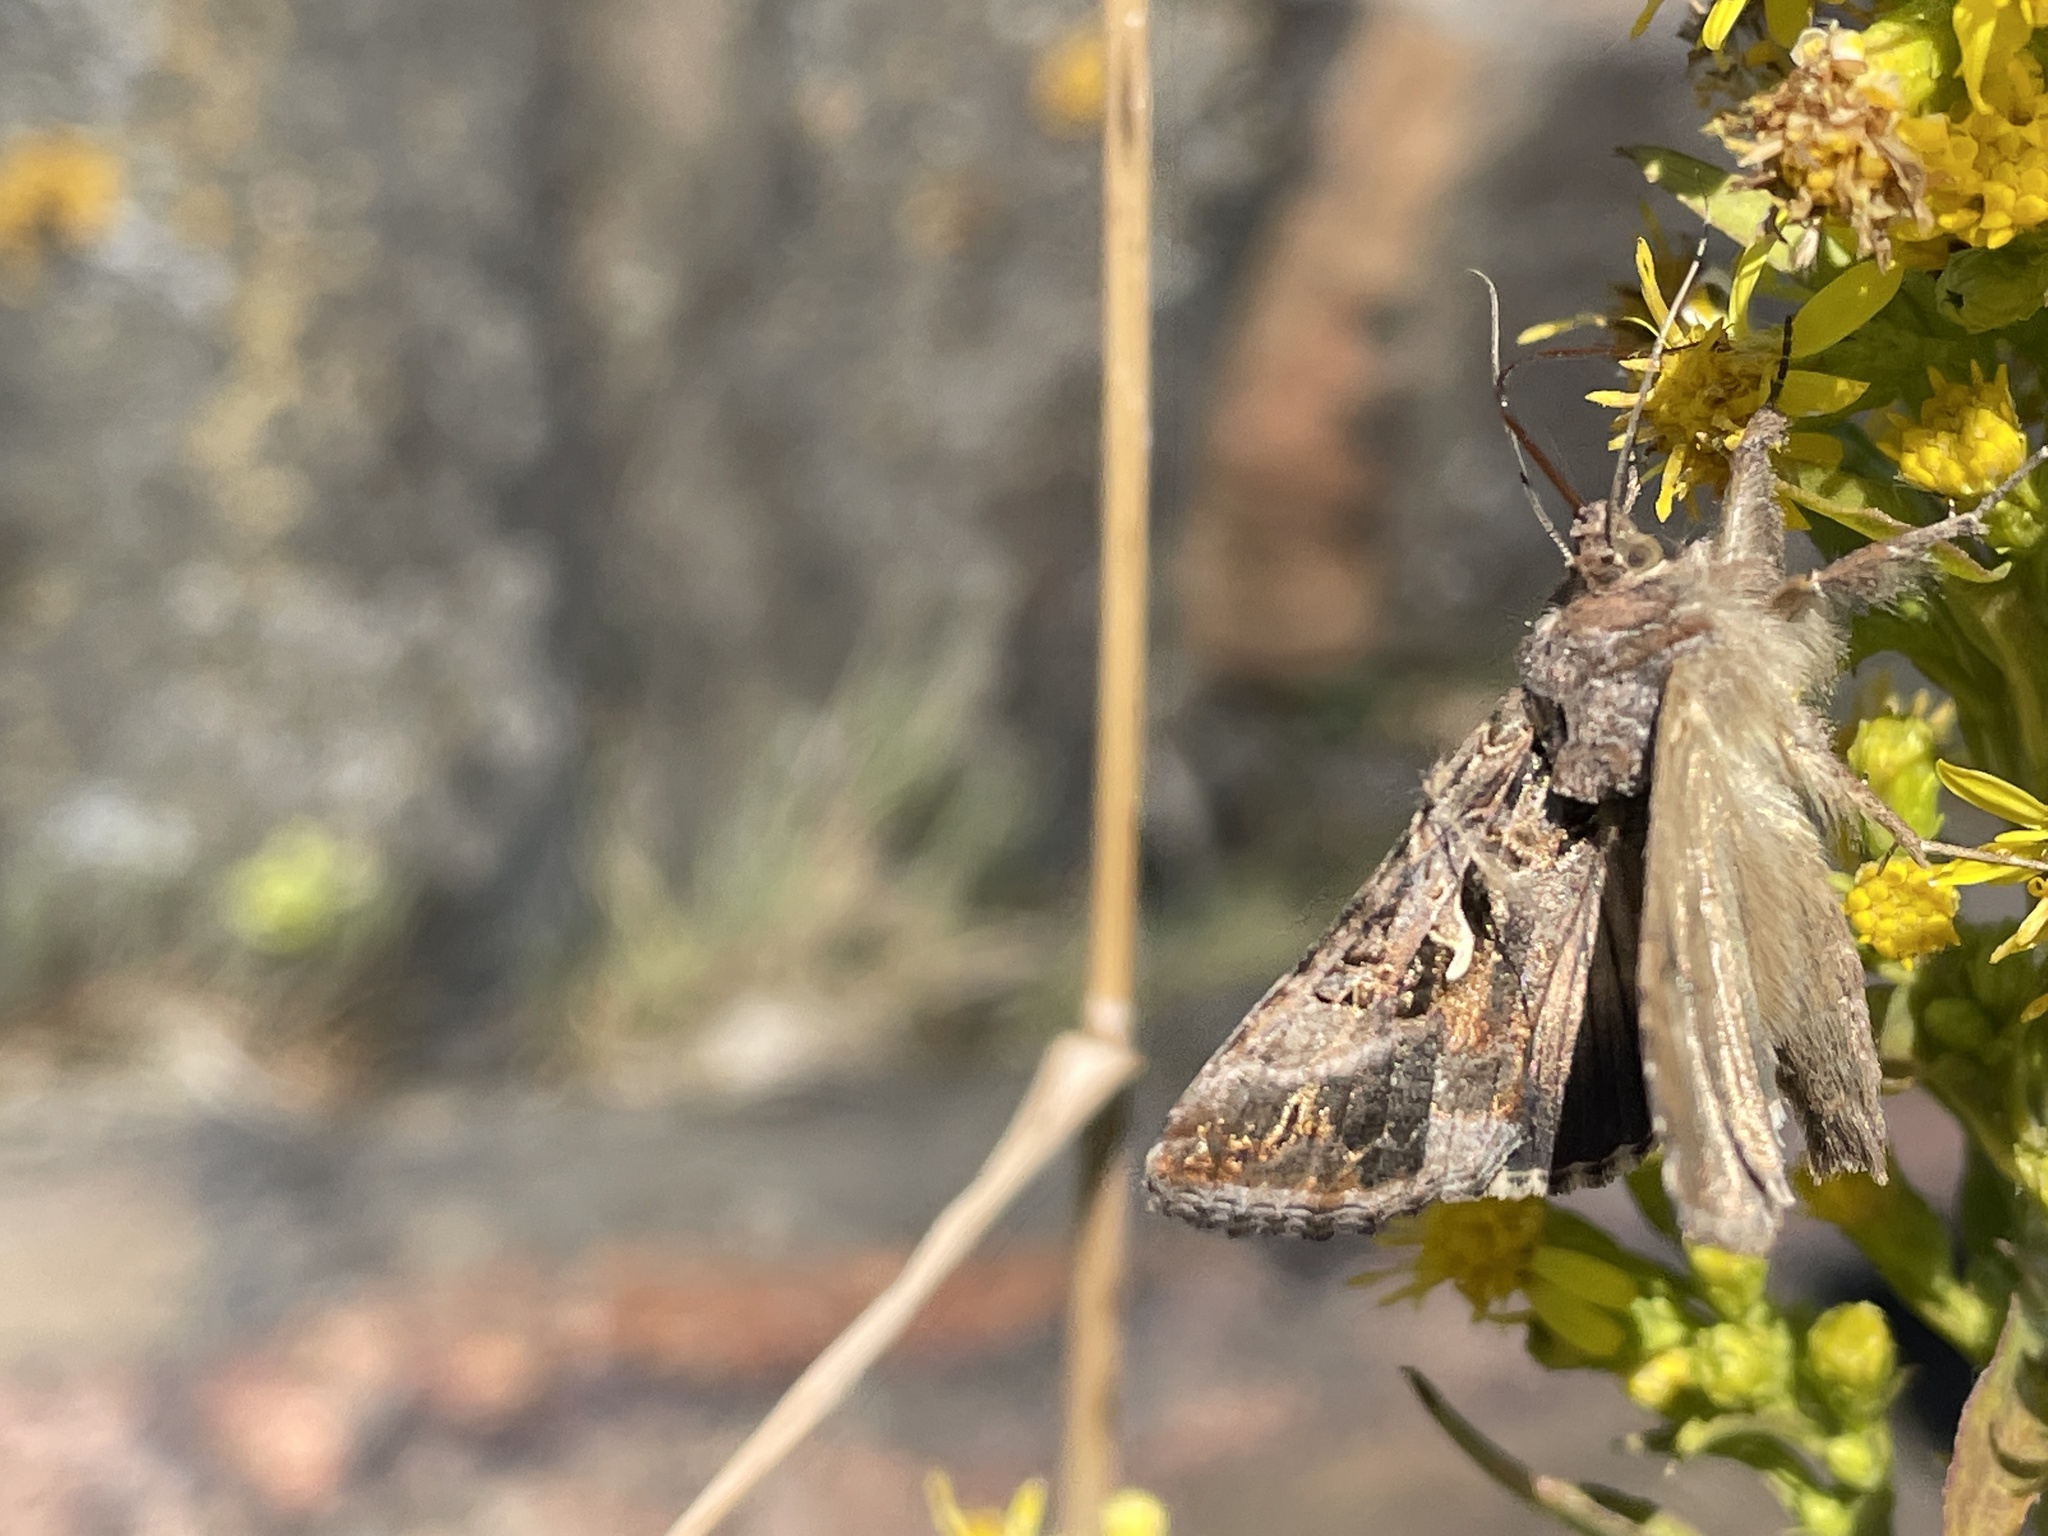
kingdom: Animalia
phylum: Arthropoda
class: Insecta
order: Lepidoptera
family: Noctuidae
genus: Autographa
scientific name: Autographa gamma
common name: Silver y
